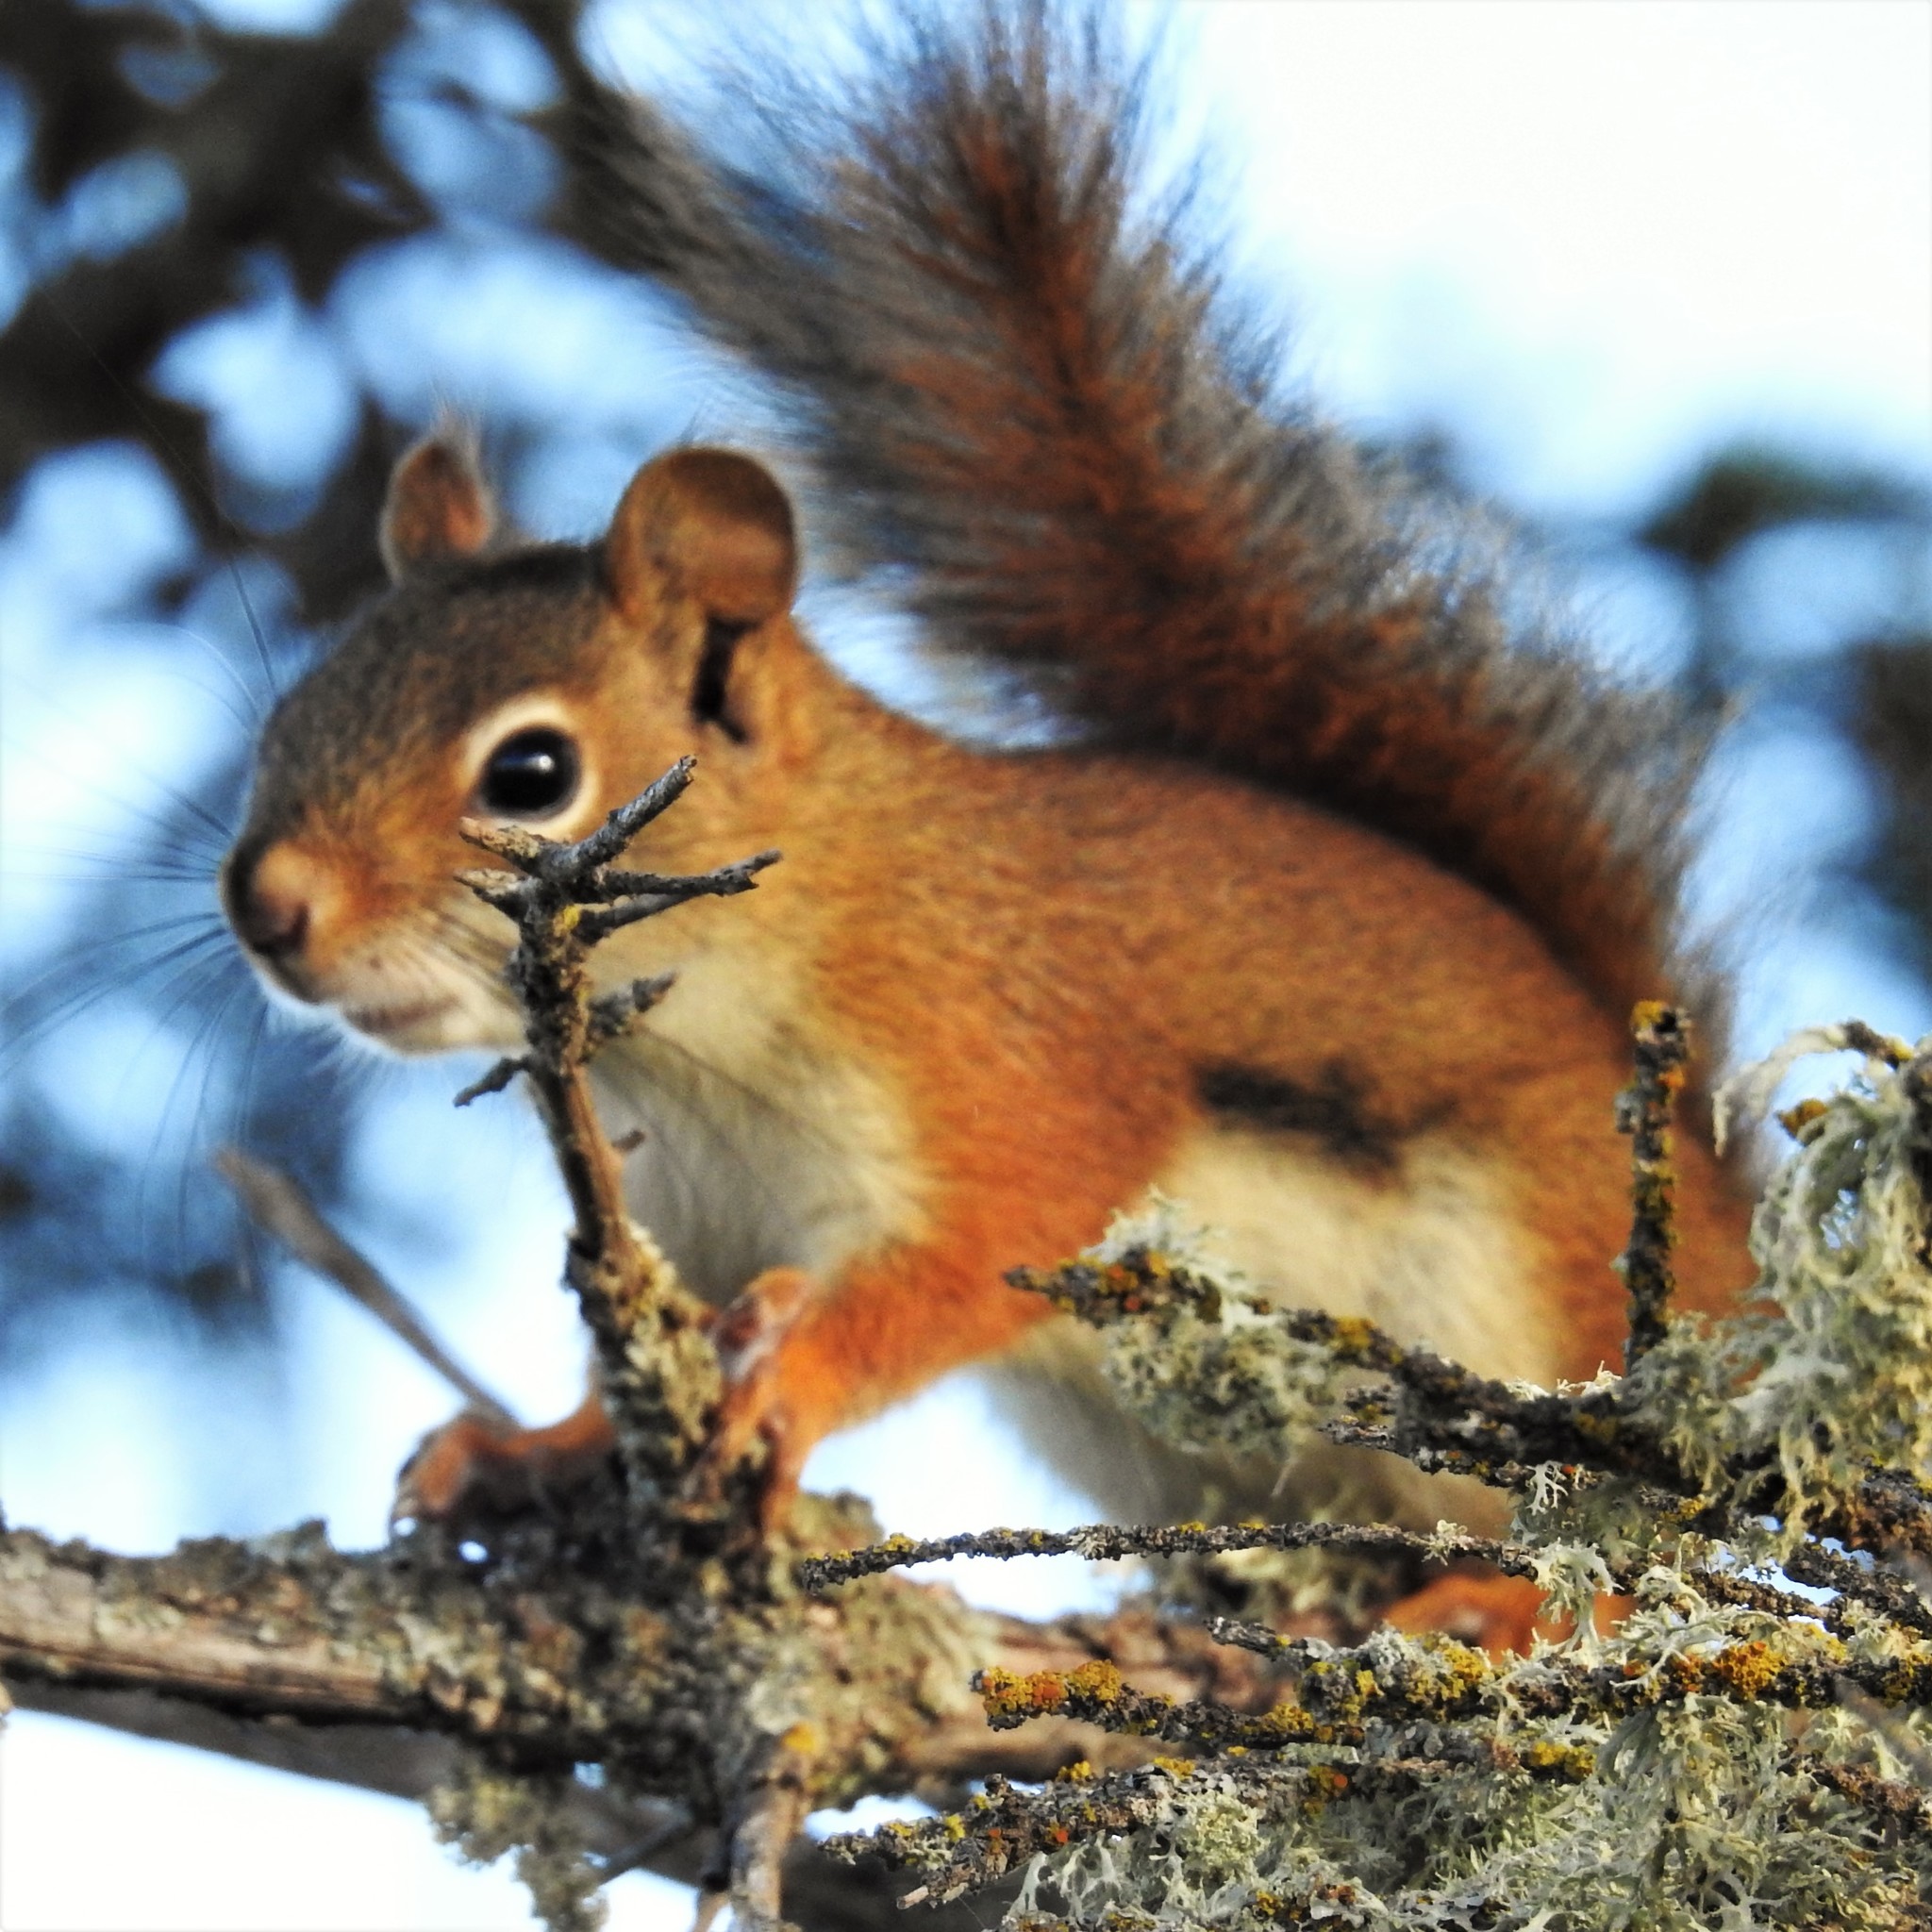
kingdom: Animalia
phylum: Chordata
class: Mammalia
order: Rodentia
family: Sciuridae
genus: Tamiasciurus
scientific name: Tamiasciurus hudsonicus
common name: Red squirrel
